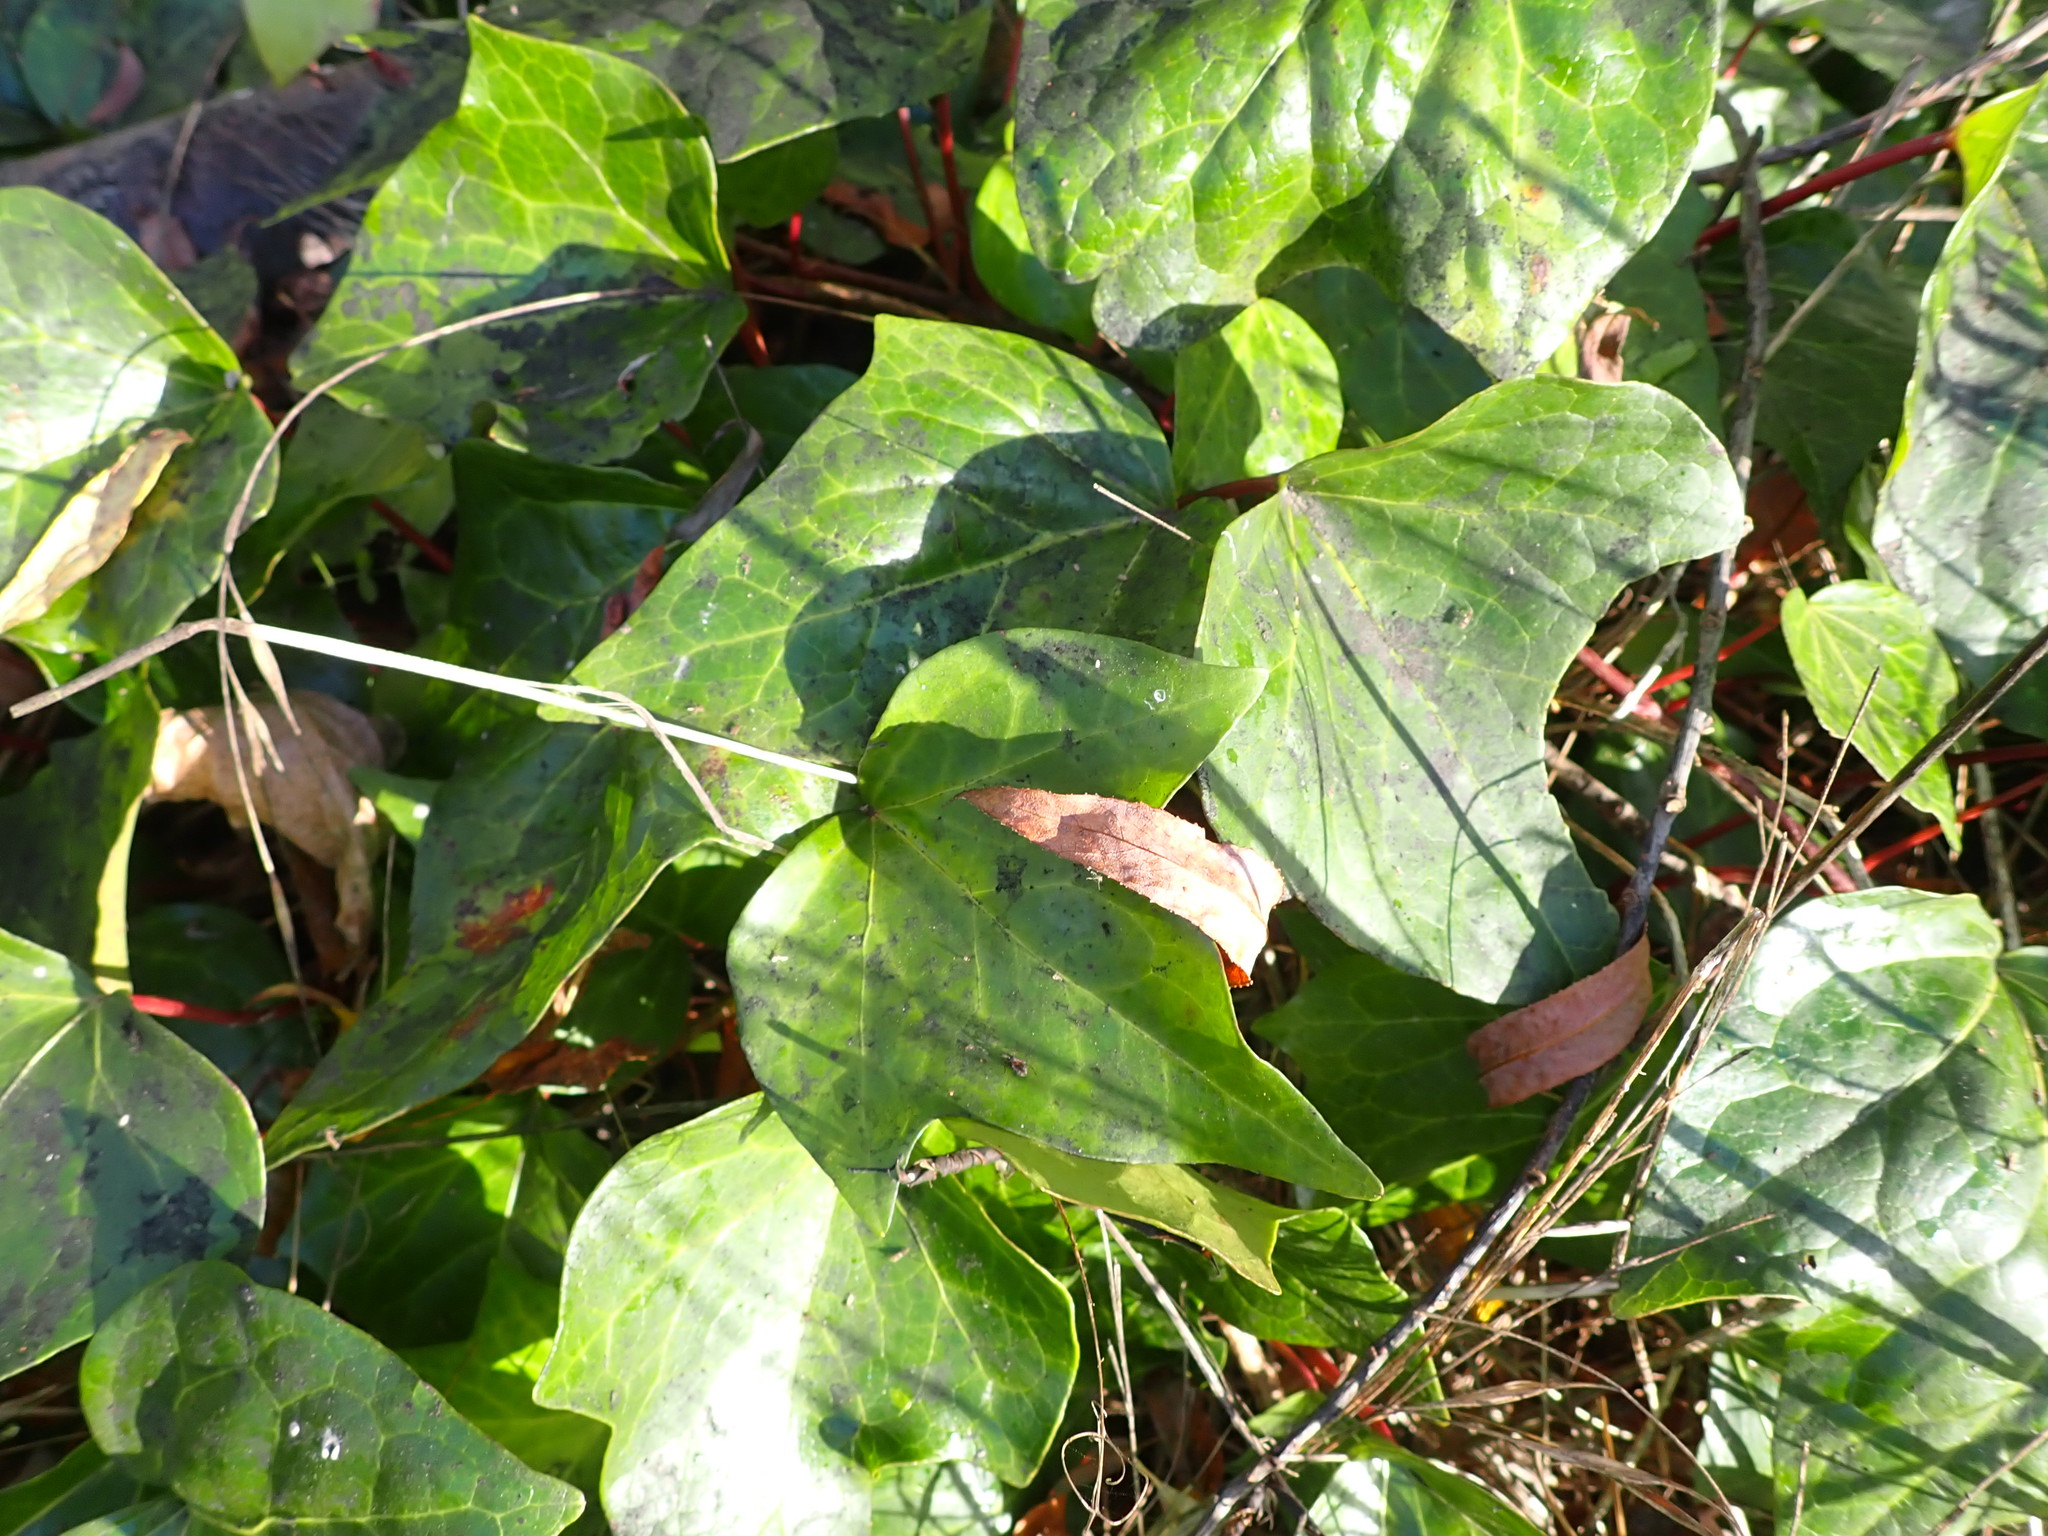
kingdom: Plantae
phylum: Tracheophyta
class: Magnoliopsida
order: Apiales
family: Araliaceae
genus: Hedera
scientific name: Hedera helix
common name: Ivy
